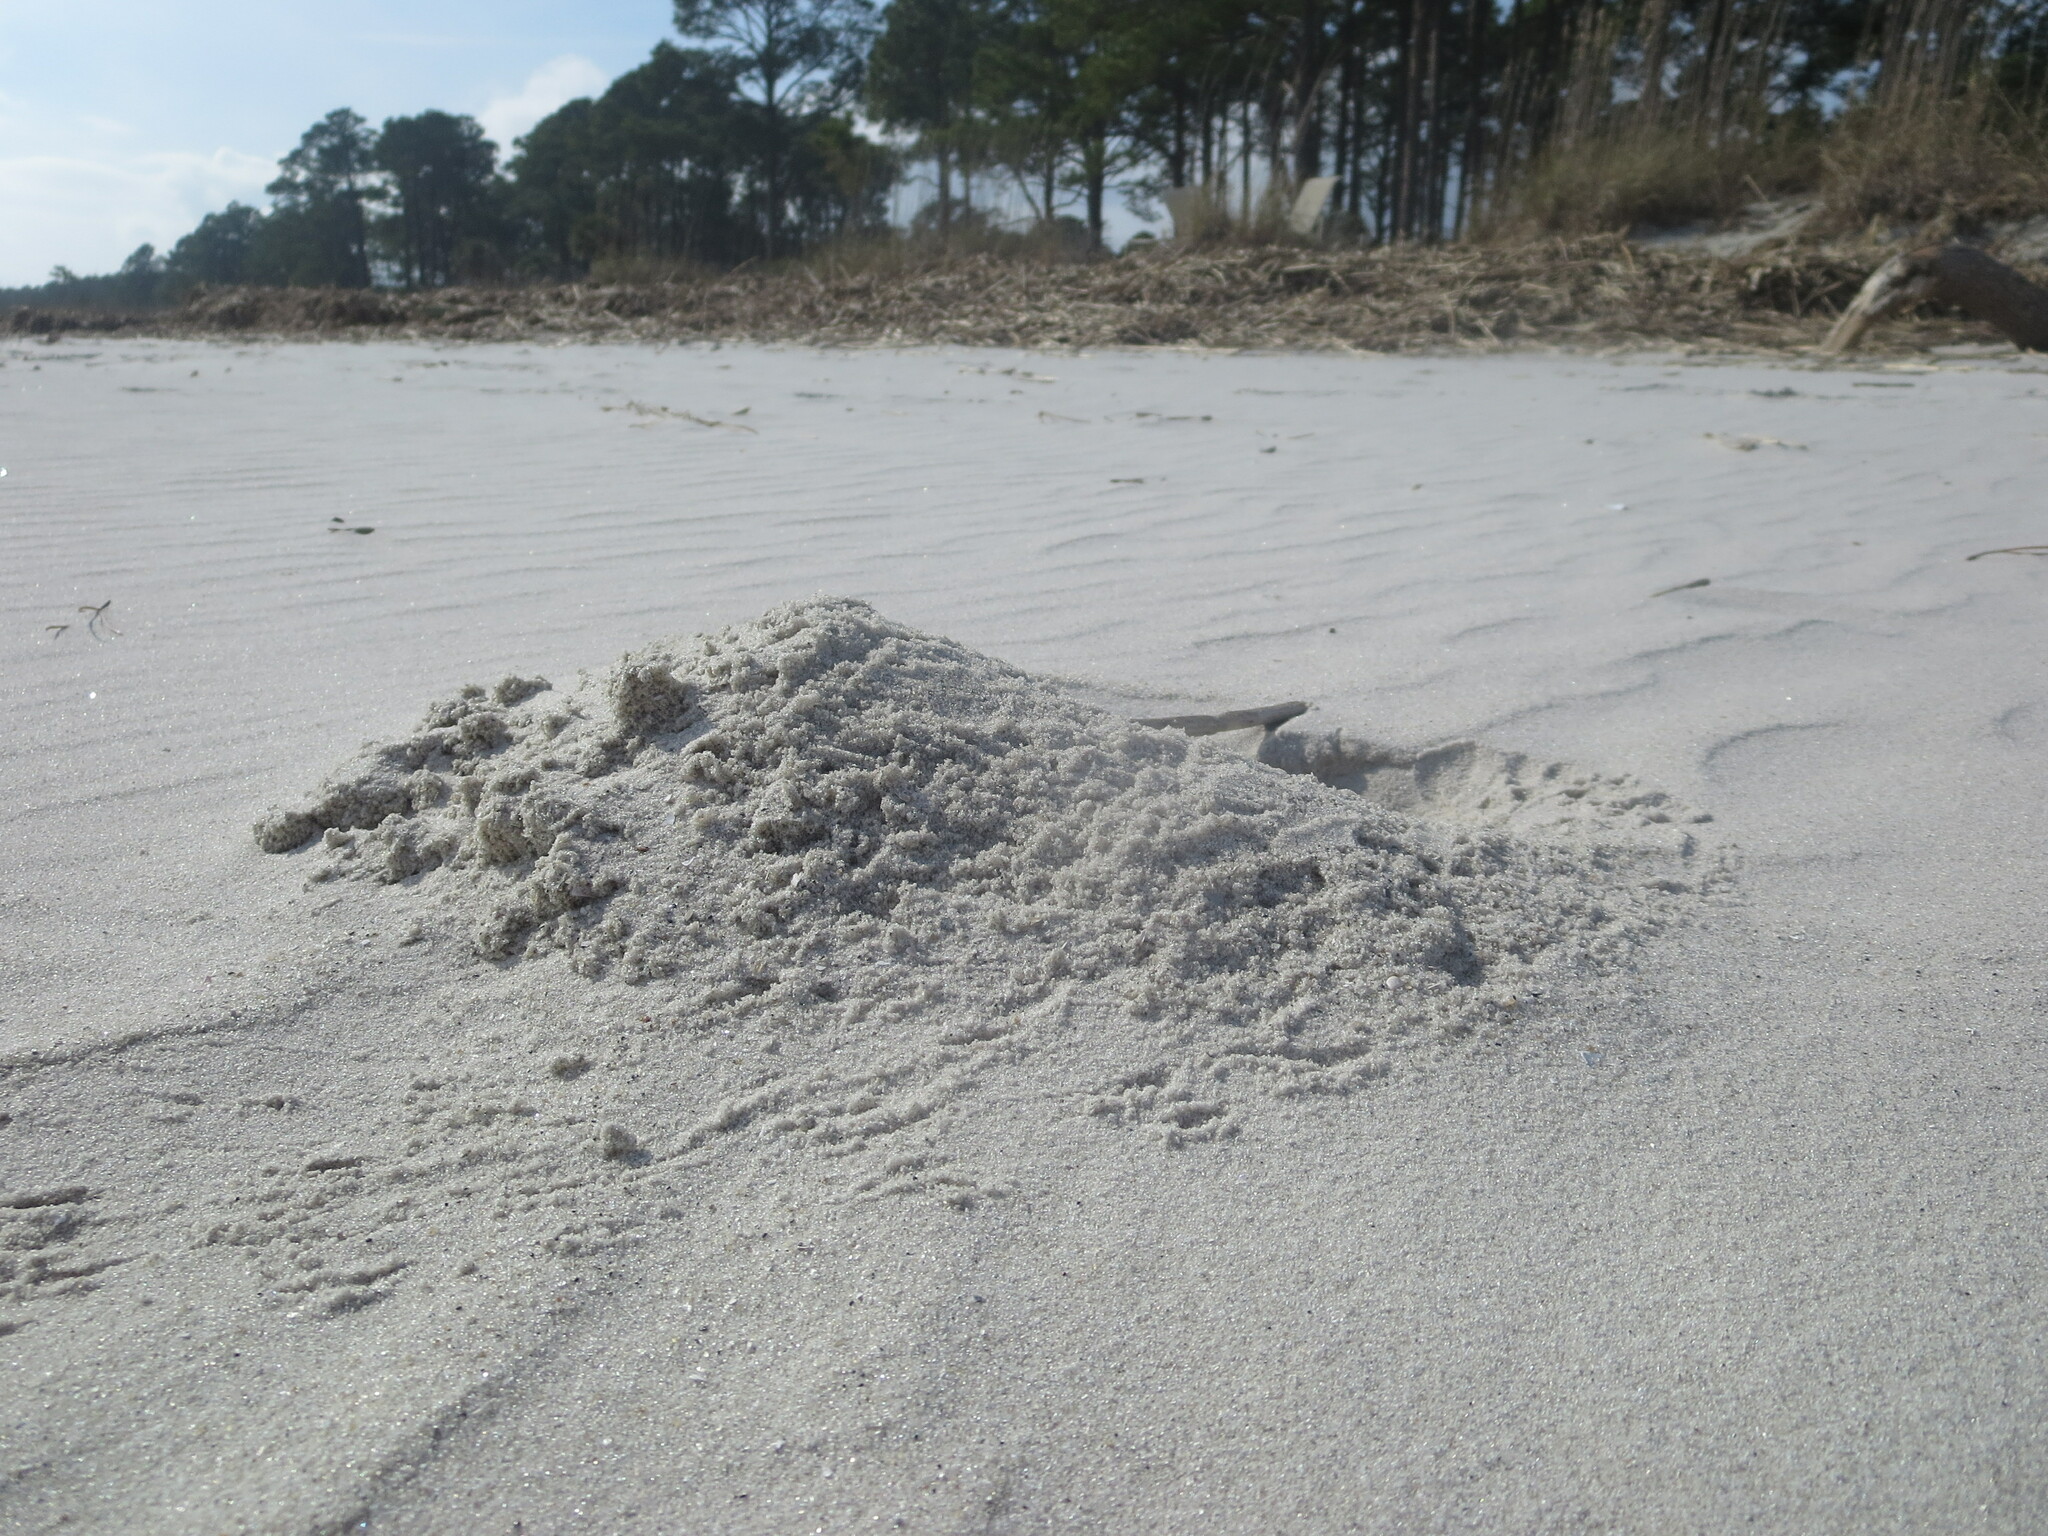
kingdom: Animalia
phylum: Arthropoda
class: Malacostraca
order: Decapoda
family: Ocypodidae
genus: Ocypode
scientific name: Ocypode quadrata
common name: Ghost crab
